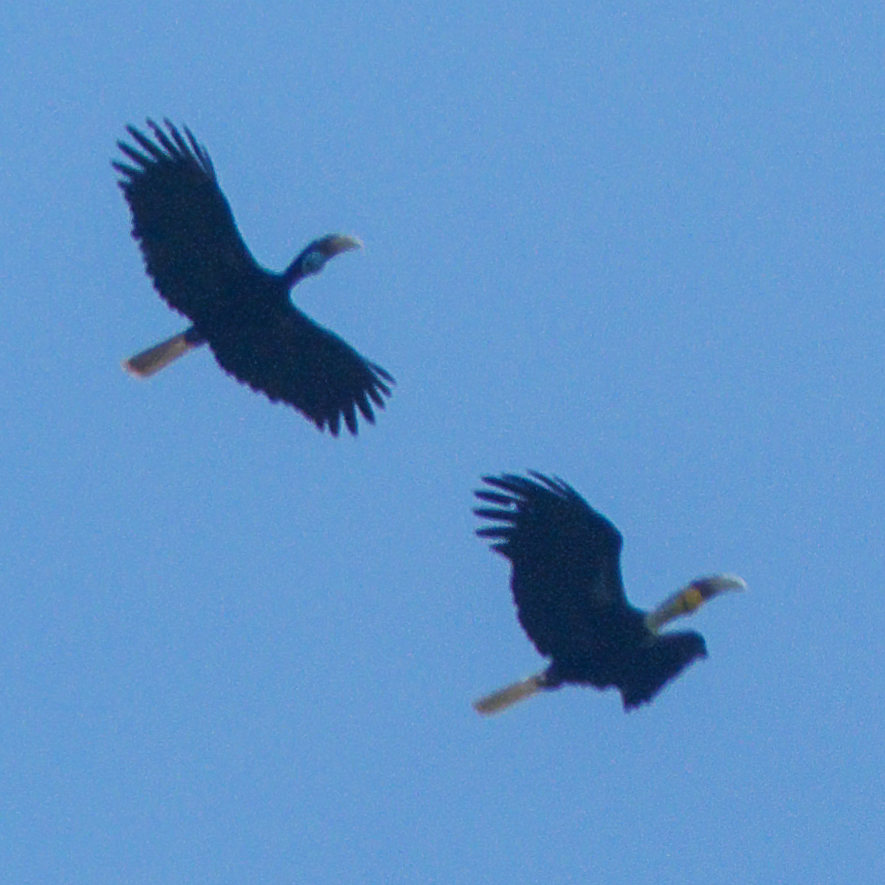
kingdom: Animalia
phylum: Chordata
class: Aves
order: Bucerotiformes
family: Bucerotidae
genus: Rhyticeros
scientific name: Rhyticeros undulatus
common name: Wreathed hornbill
